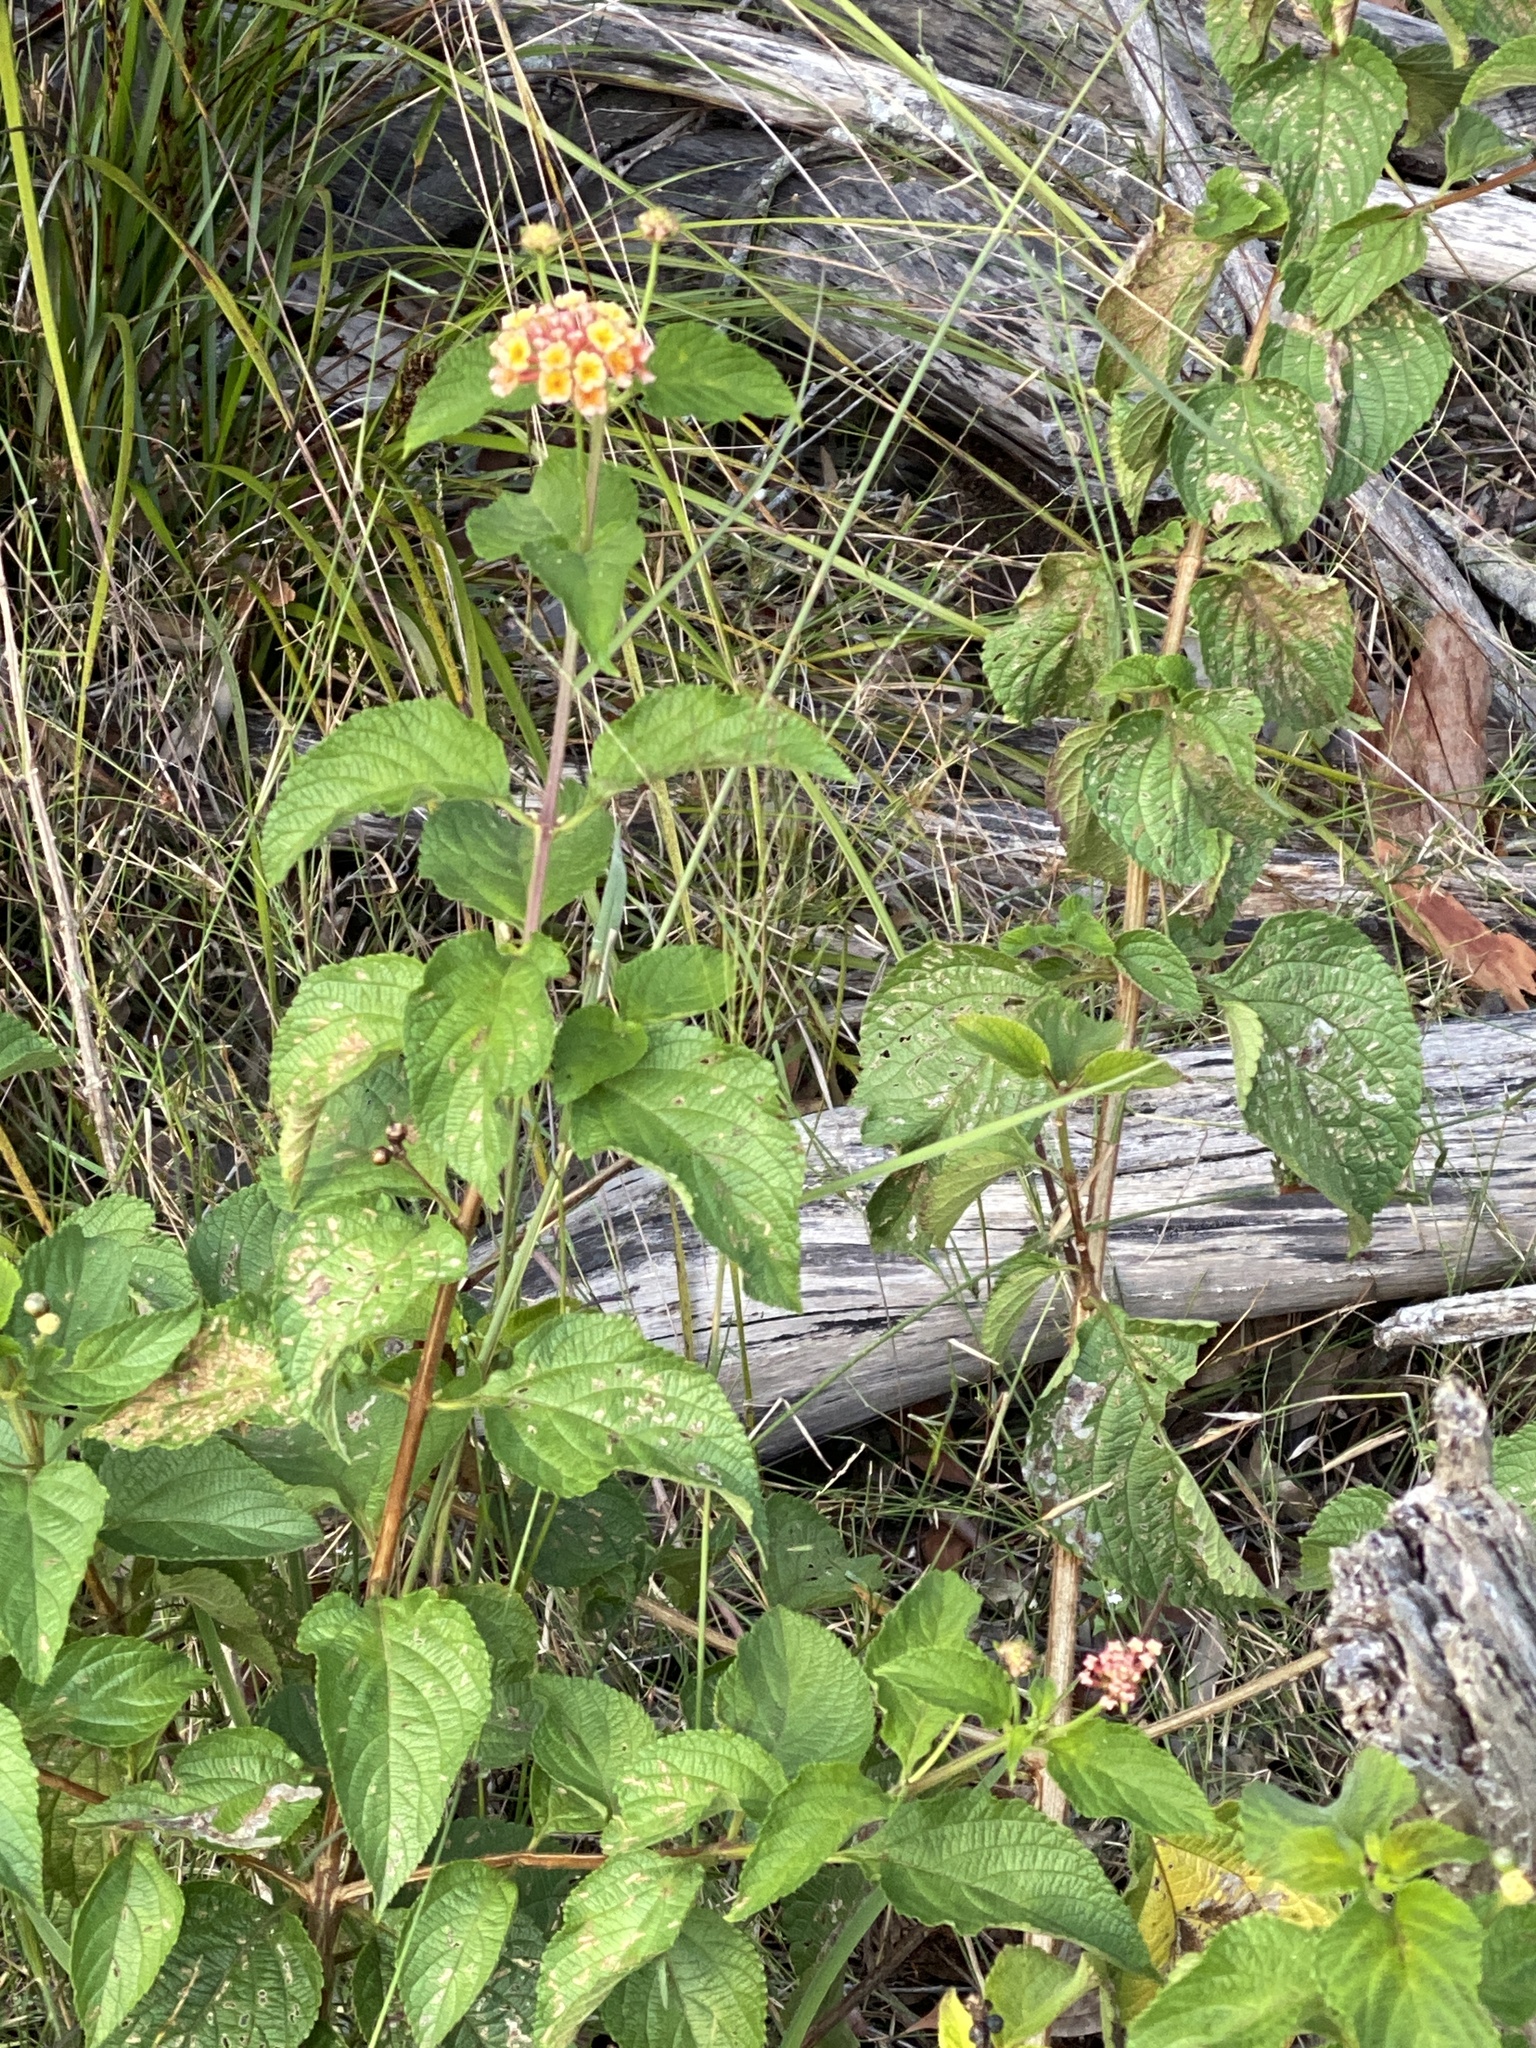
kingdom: Plantae
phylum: Tracheophyta
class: Magnoliopsida
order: Lamiales
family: Verbenaceae
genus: Lantana
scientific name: Lantana camara
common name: Lantana
